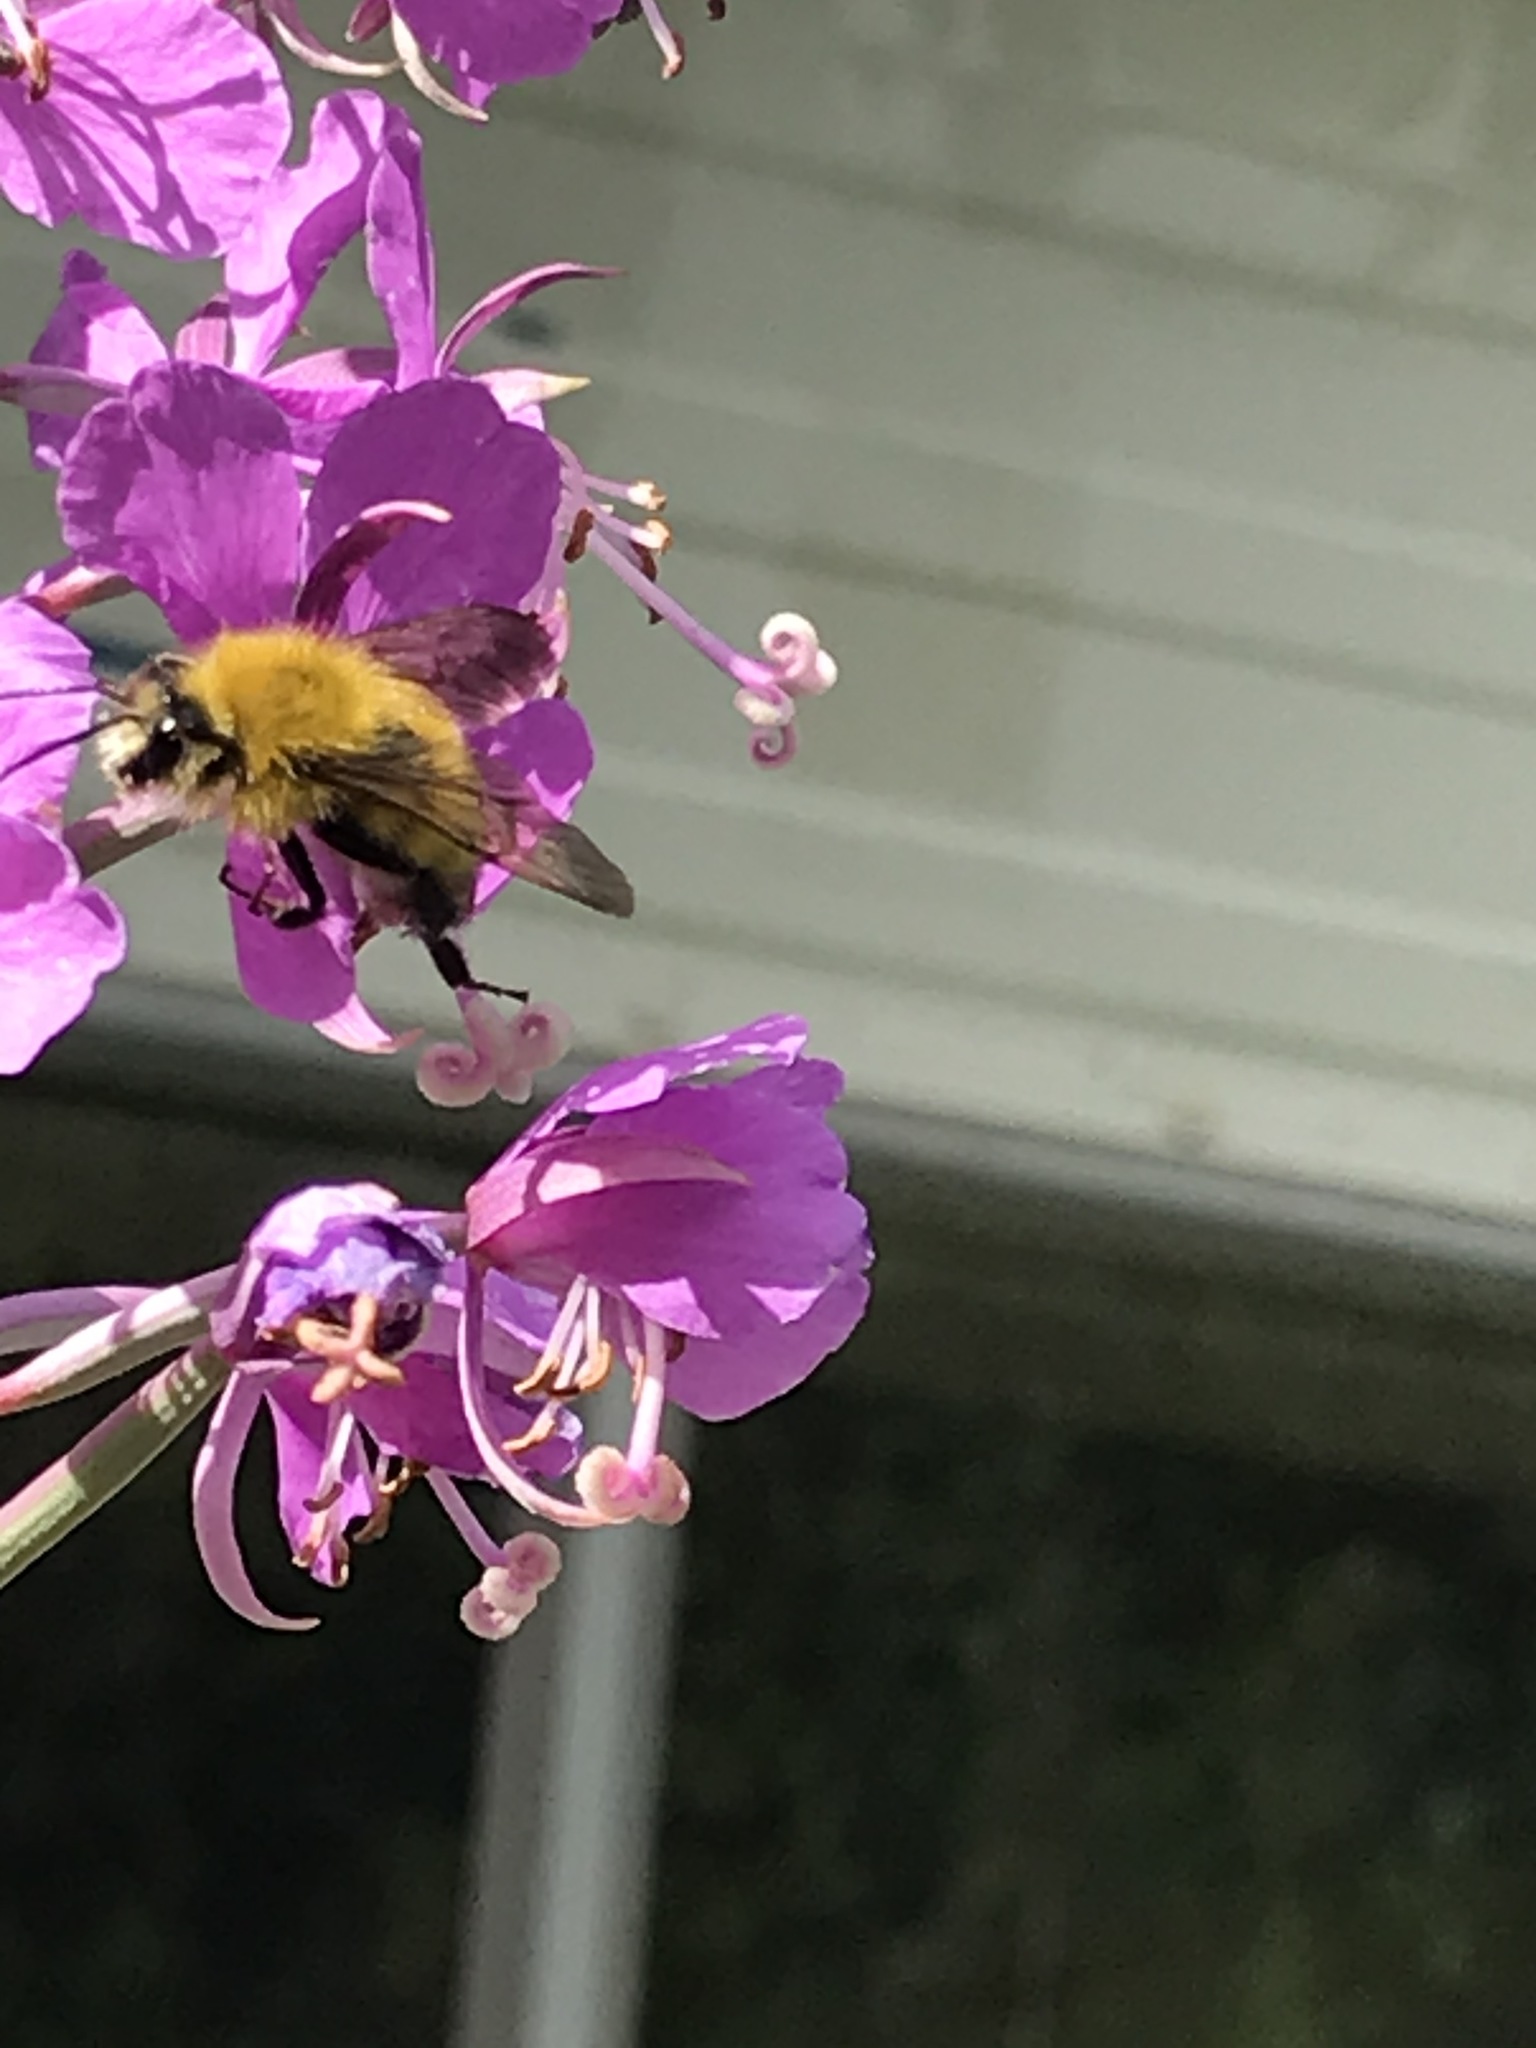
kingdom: Animalia
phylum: Arthropoda
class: Insecta
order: Hymenoptera
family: Apidae
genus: Bombus
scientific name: Bombus perplexus
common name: Confusing bumble bee
